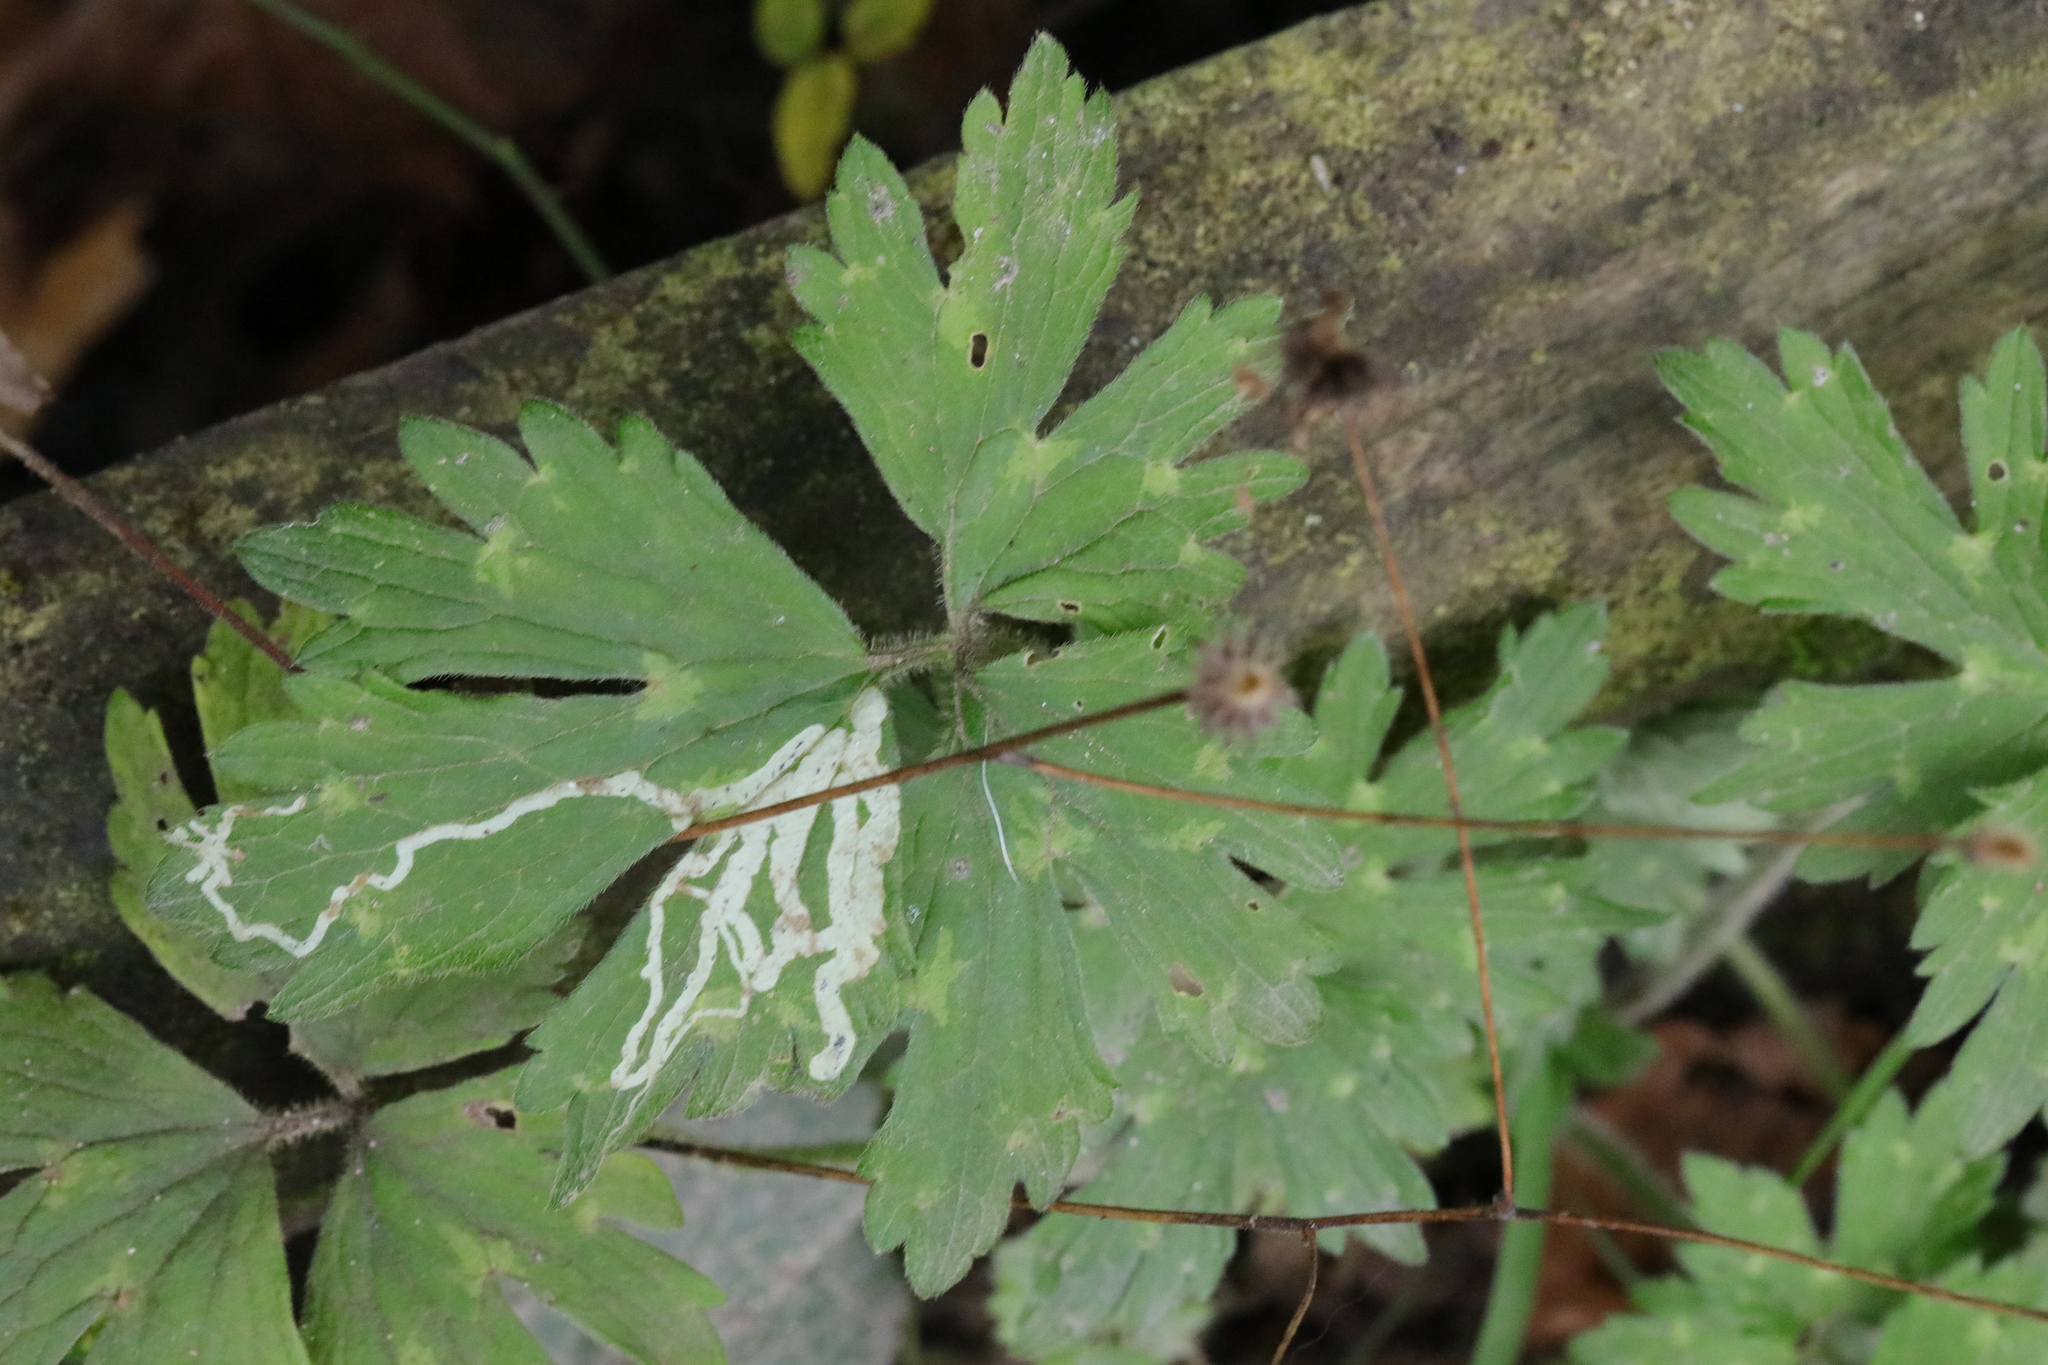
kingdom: Plantae
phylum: Tracheophyta
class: Magnoliopsida
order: Ranunculales
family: Ranunculaceae
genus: Ranunculus
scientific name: Ranunculus repens
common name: Creeping buttercup
